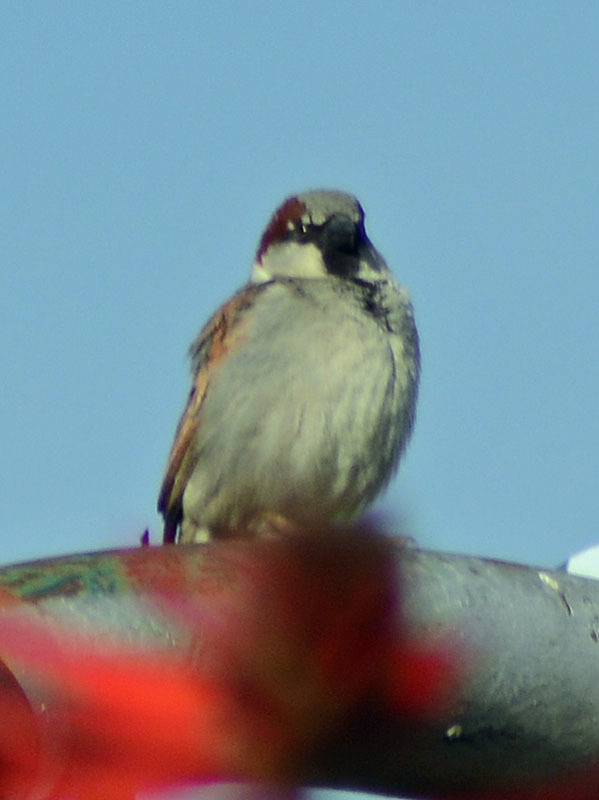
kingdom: Animalia
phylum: Chordata
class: Aves
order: Passeriformes
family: Passeridae
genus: Passer
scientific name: Passer domesticus
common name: House sparrow
